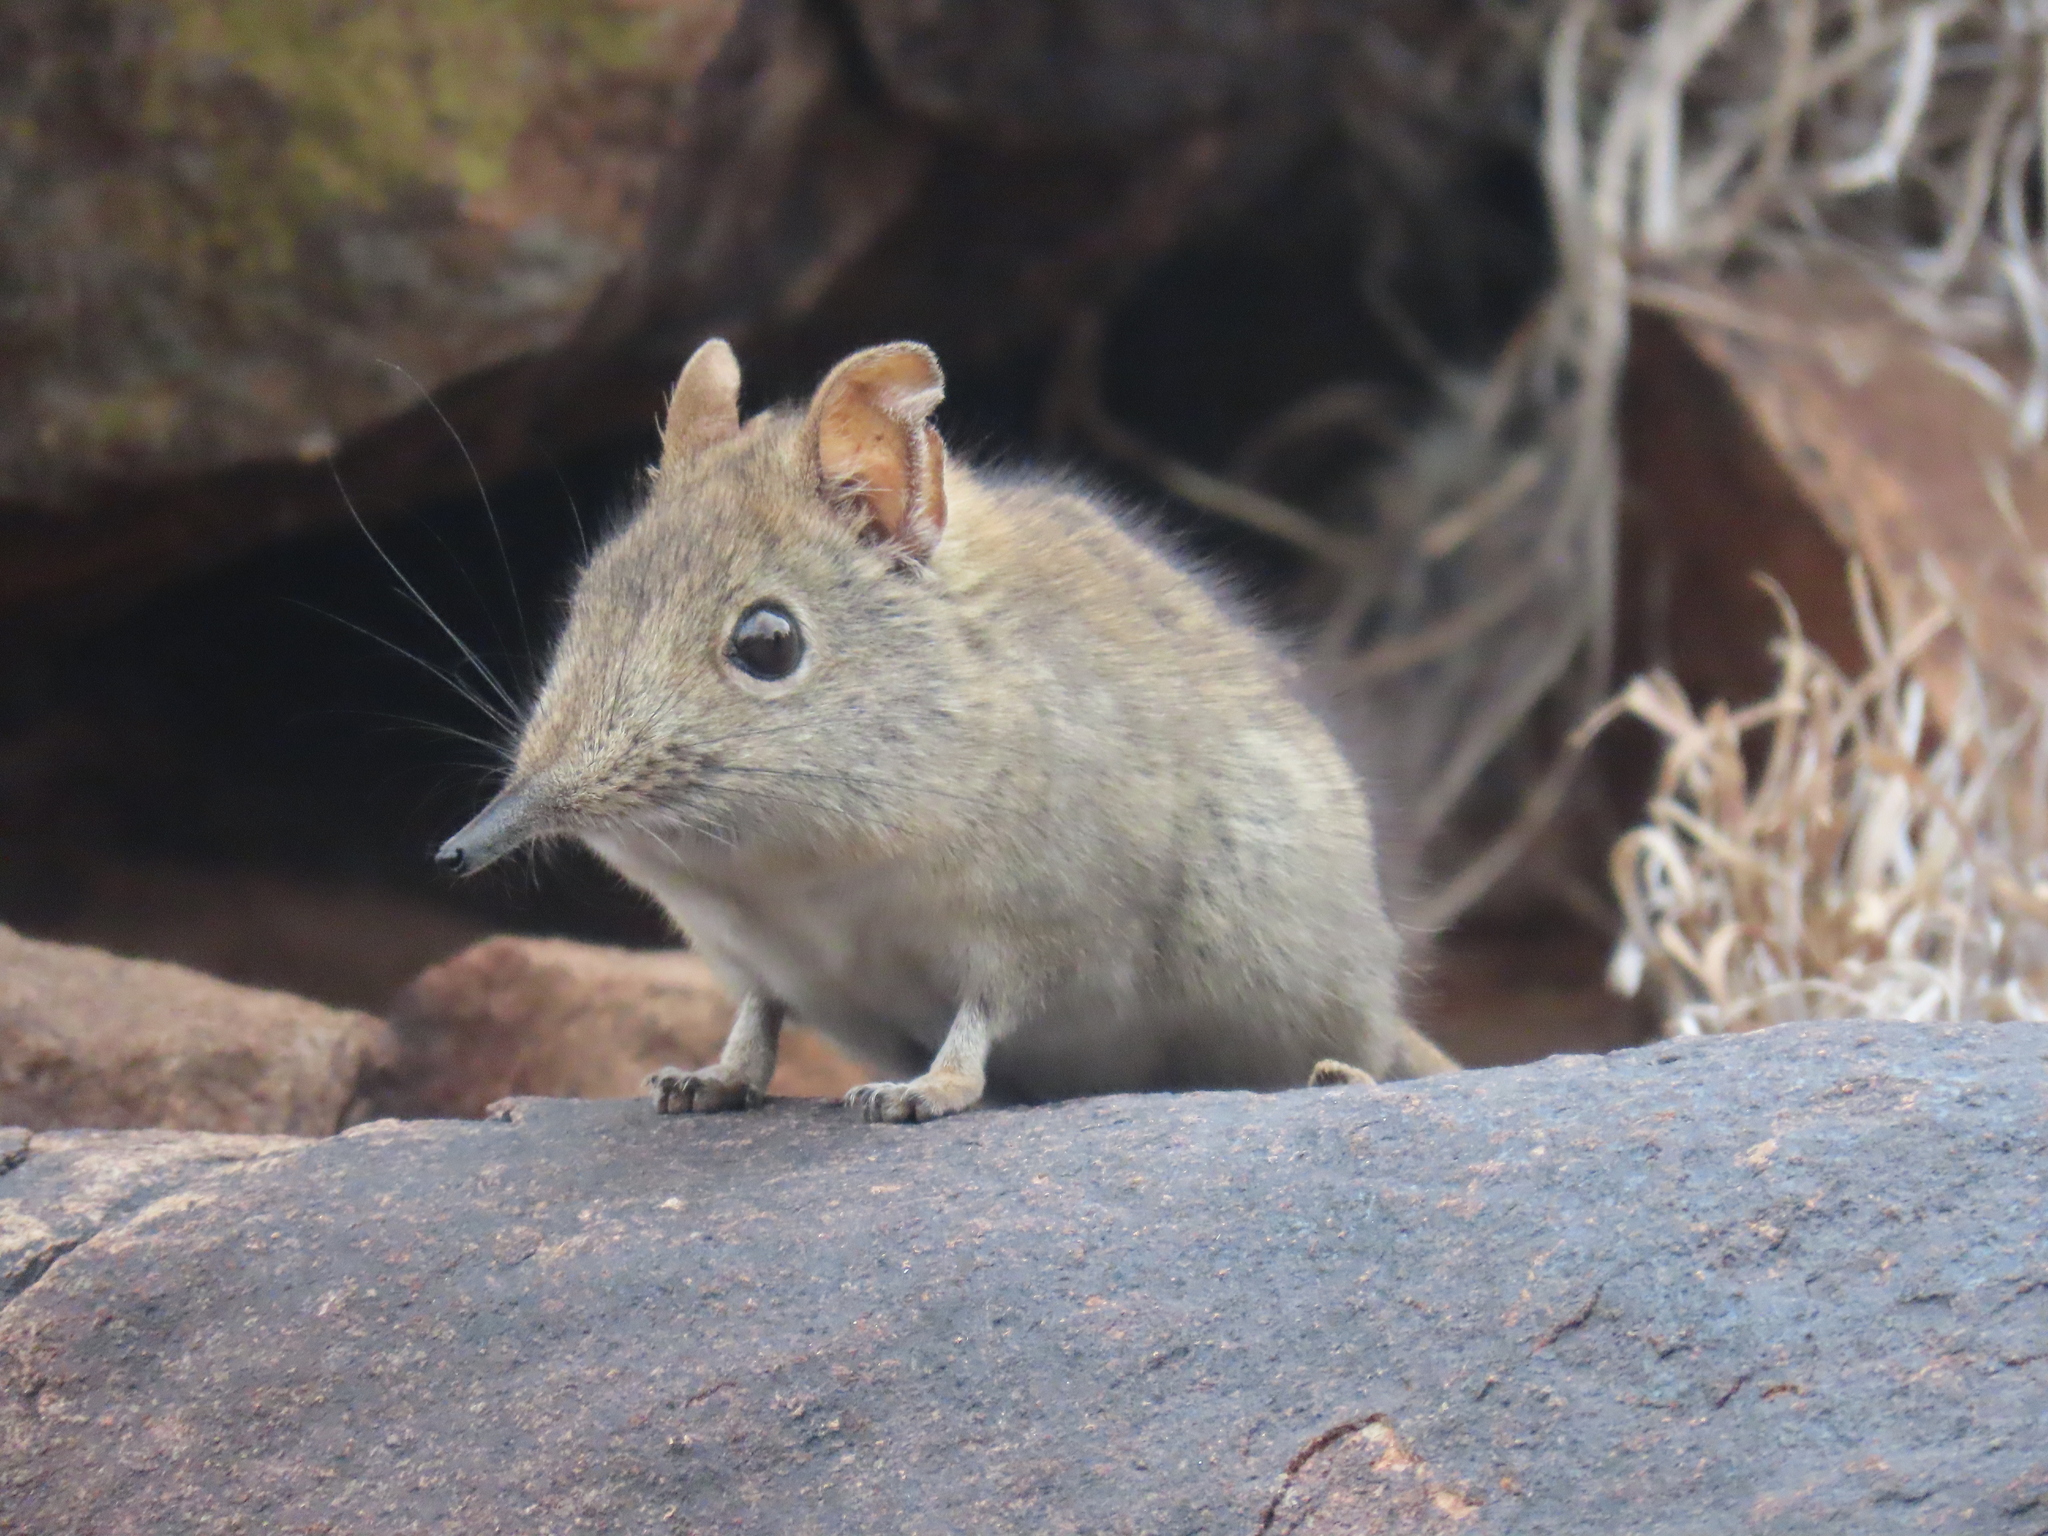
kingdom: Animalia
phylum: Chordata
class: Mammalia
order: Macroscelidea
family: Macroscelididae
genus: Elephantulus
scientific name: Elephantulus myurus
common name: Eastern rock elephant shrew
